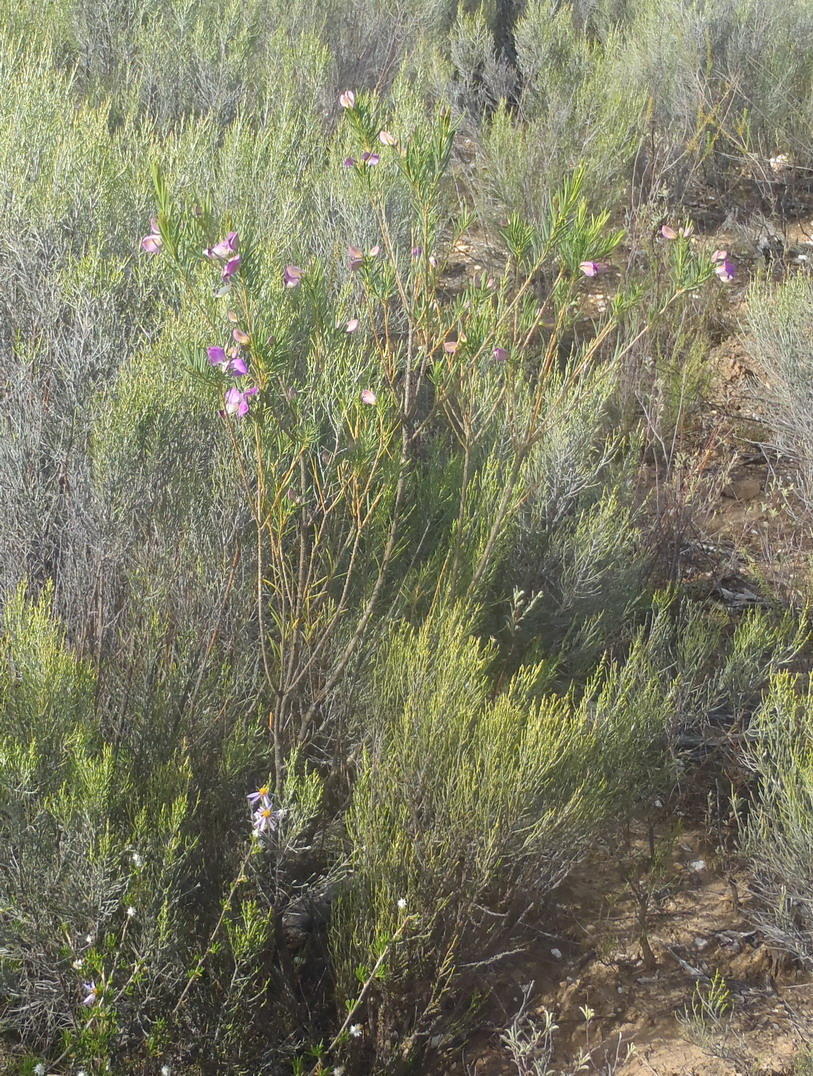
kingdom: Plantae
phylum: Tracheophyta
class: Magnoliopsida
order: Fabales
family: Polygalaceae
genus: Polygala
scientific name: Polygala myrtifolia
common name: Myrtle-leaf milkwort
